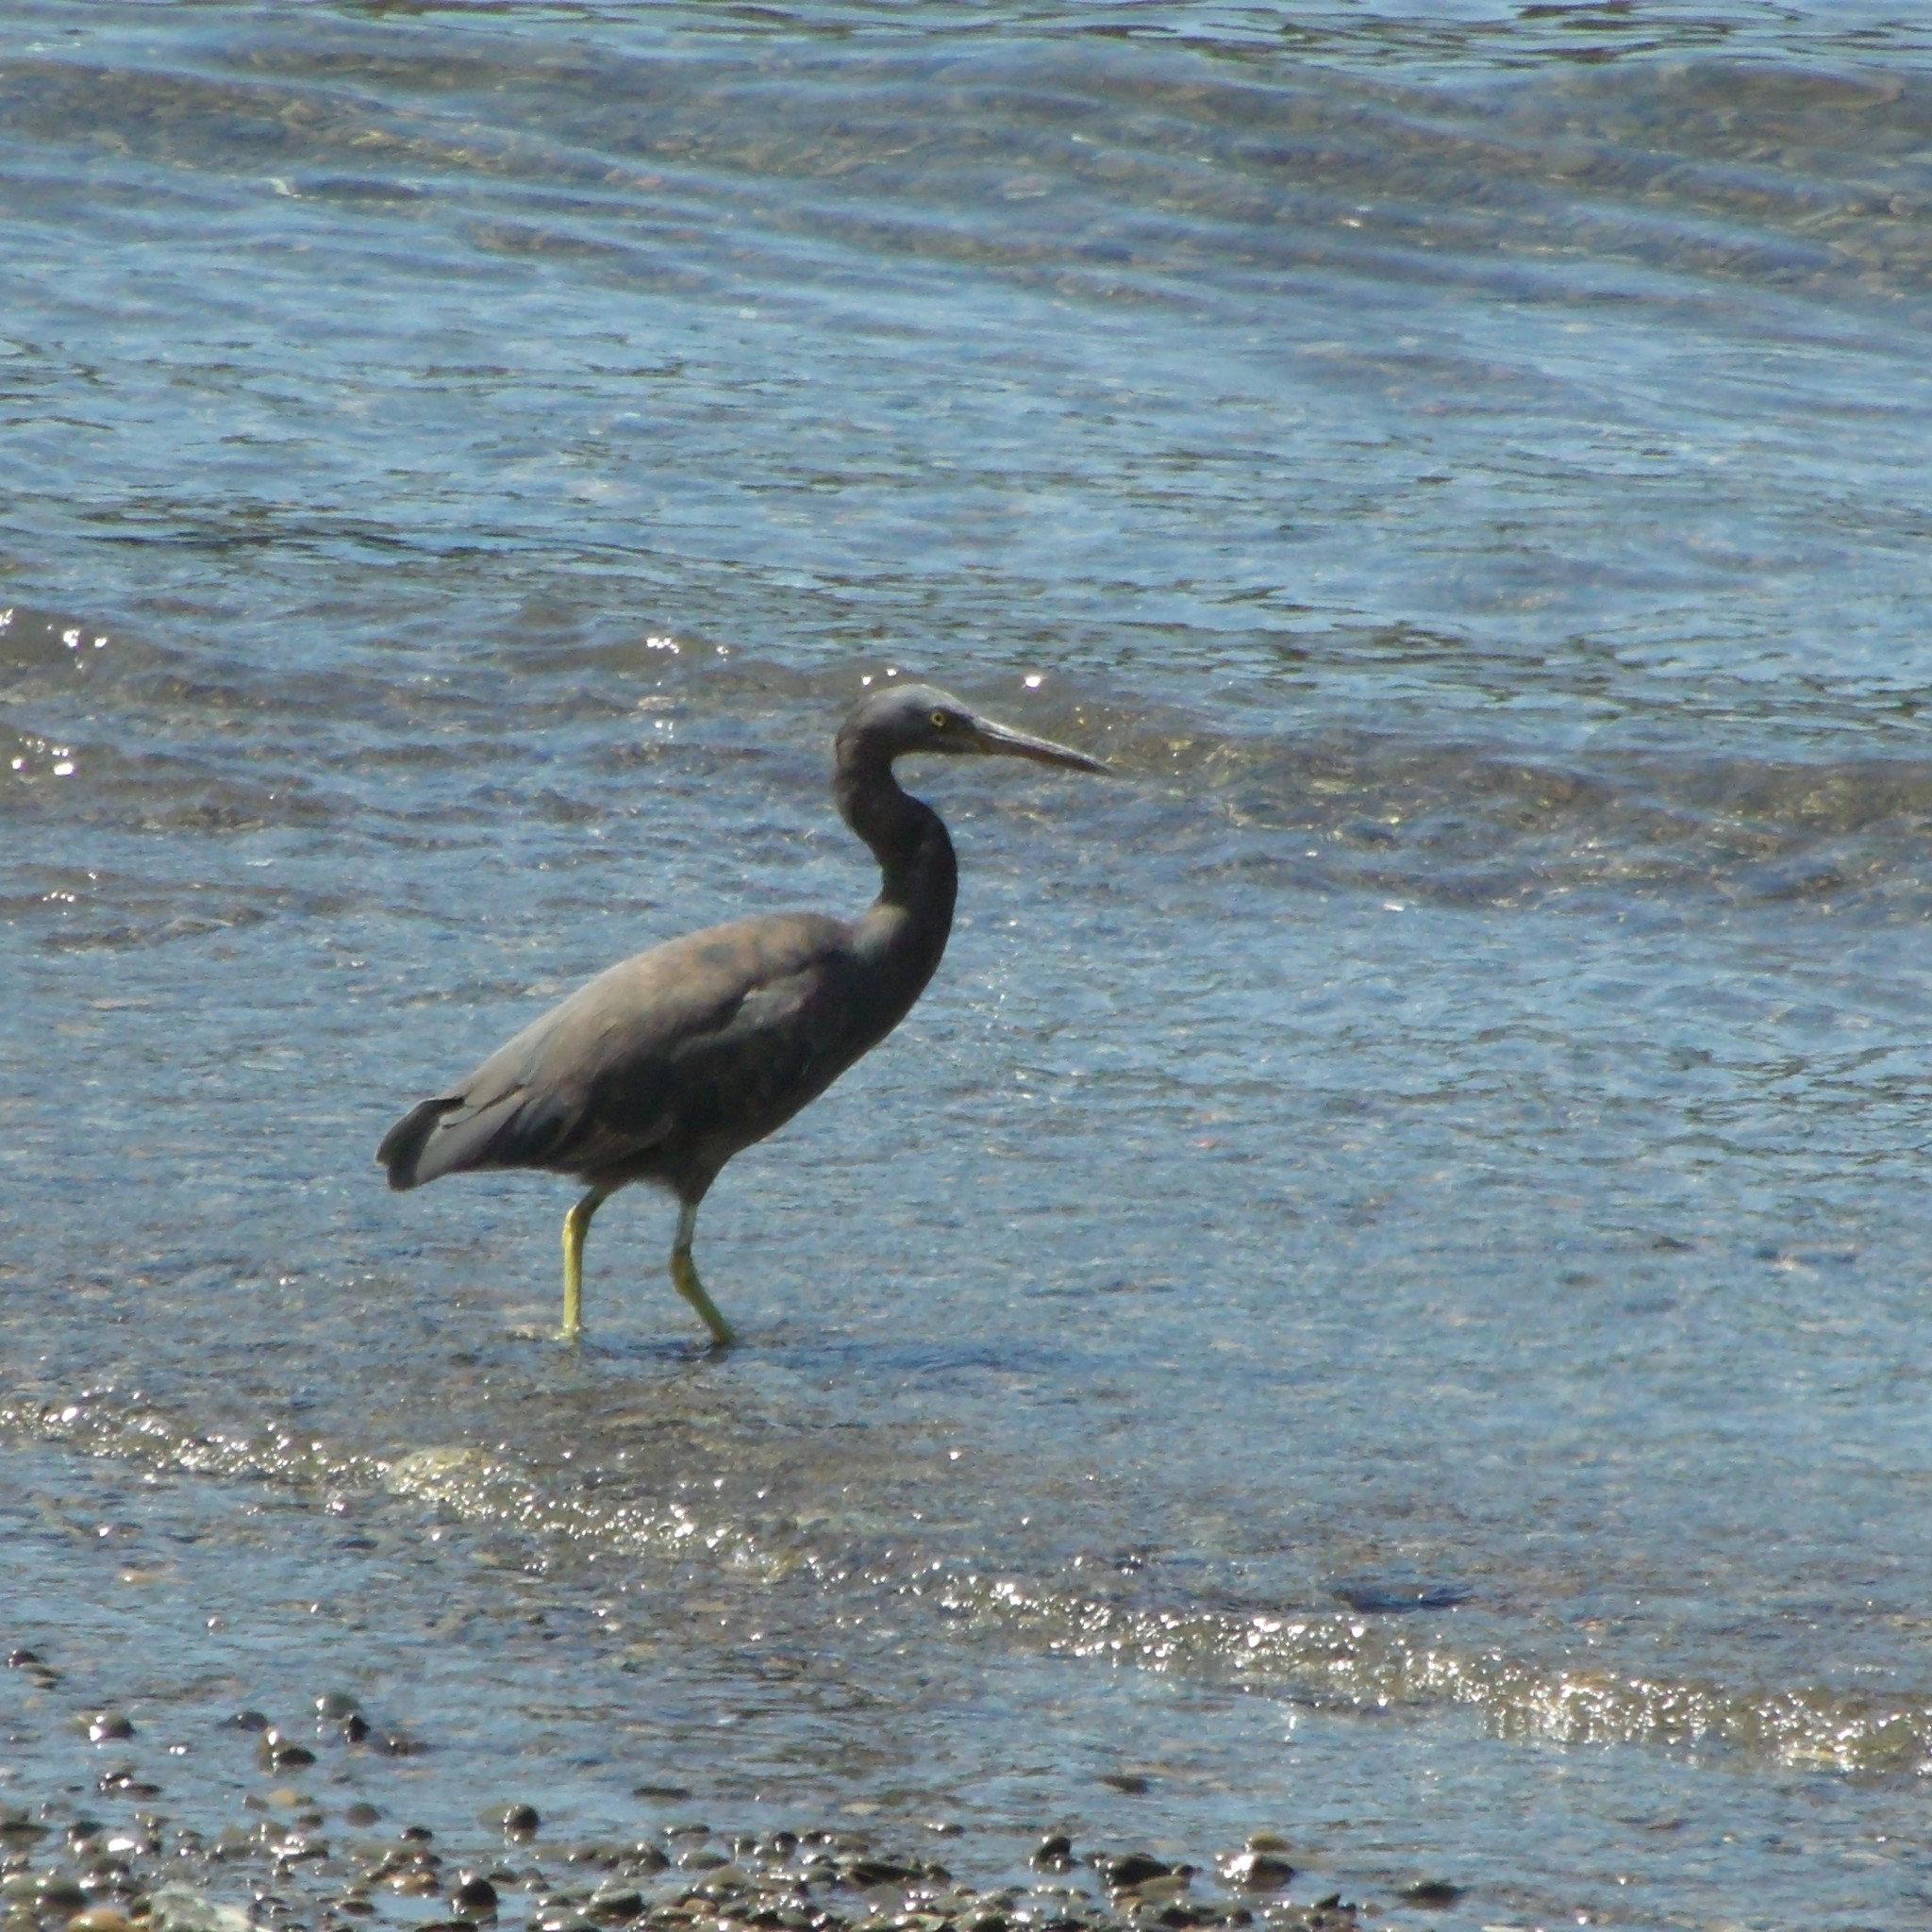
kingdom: Animalia
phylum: Chordata
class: Aves
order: Pelecaniformes
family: Ardeidae
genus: Egretta
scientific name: Egretta sacra
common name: Pacific reef heron
